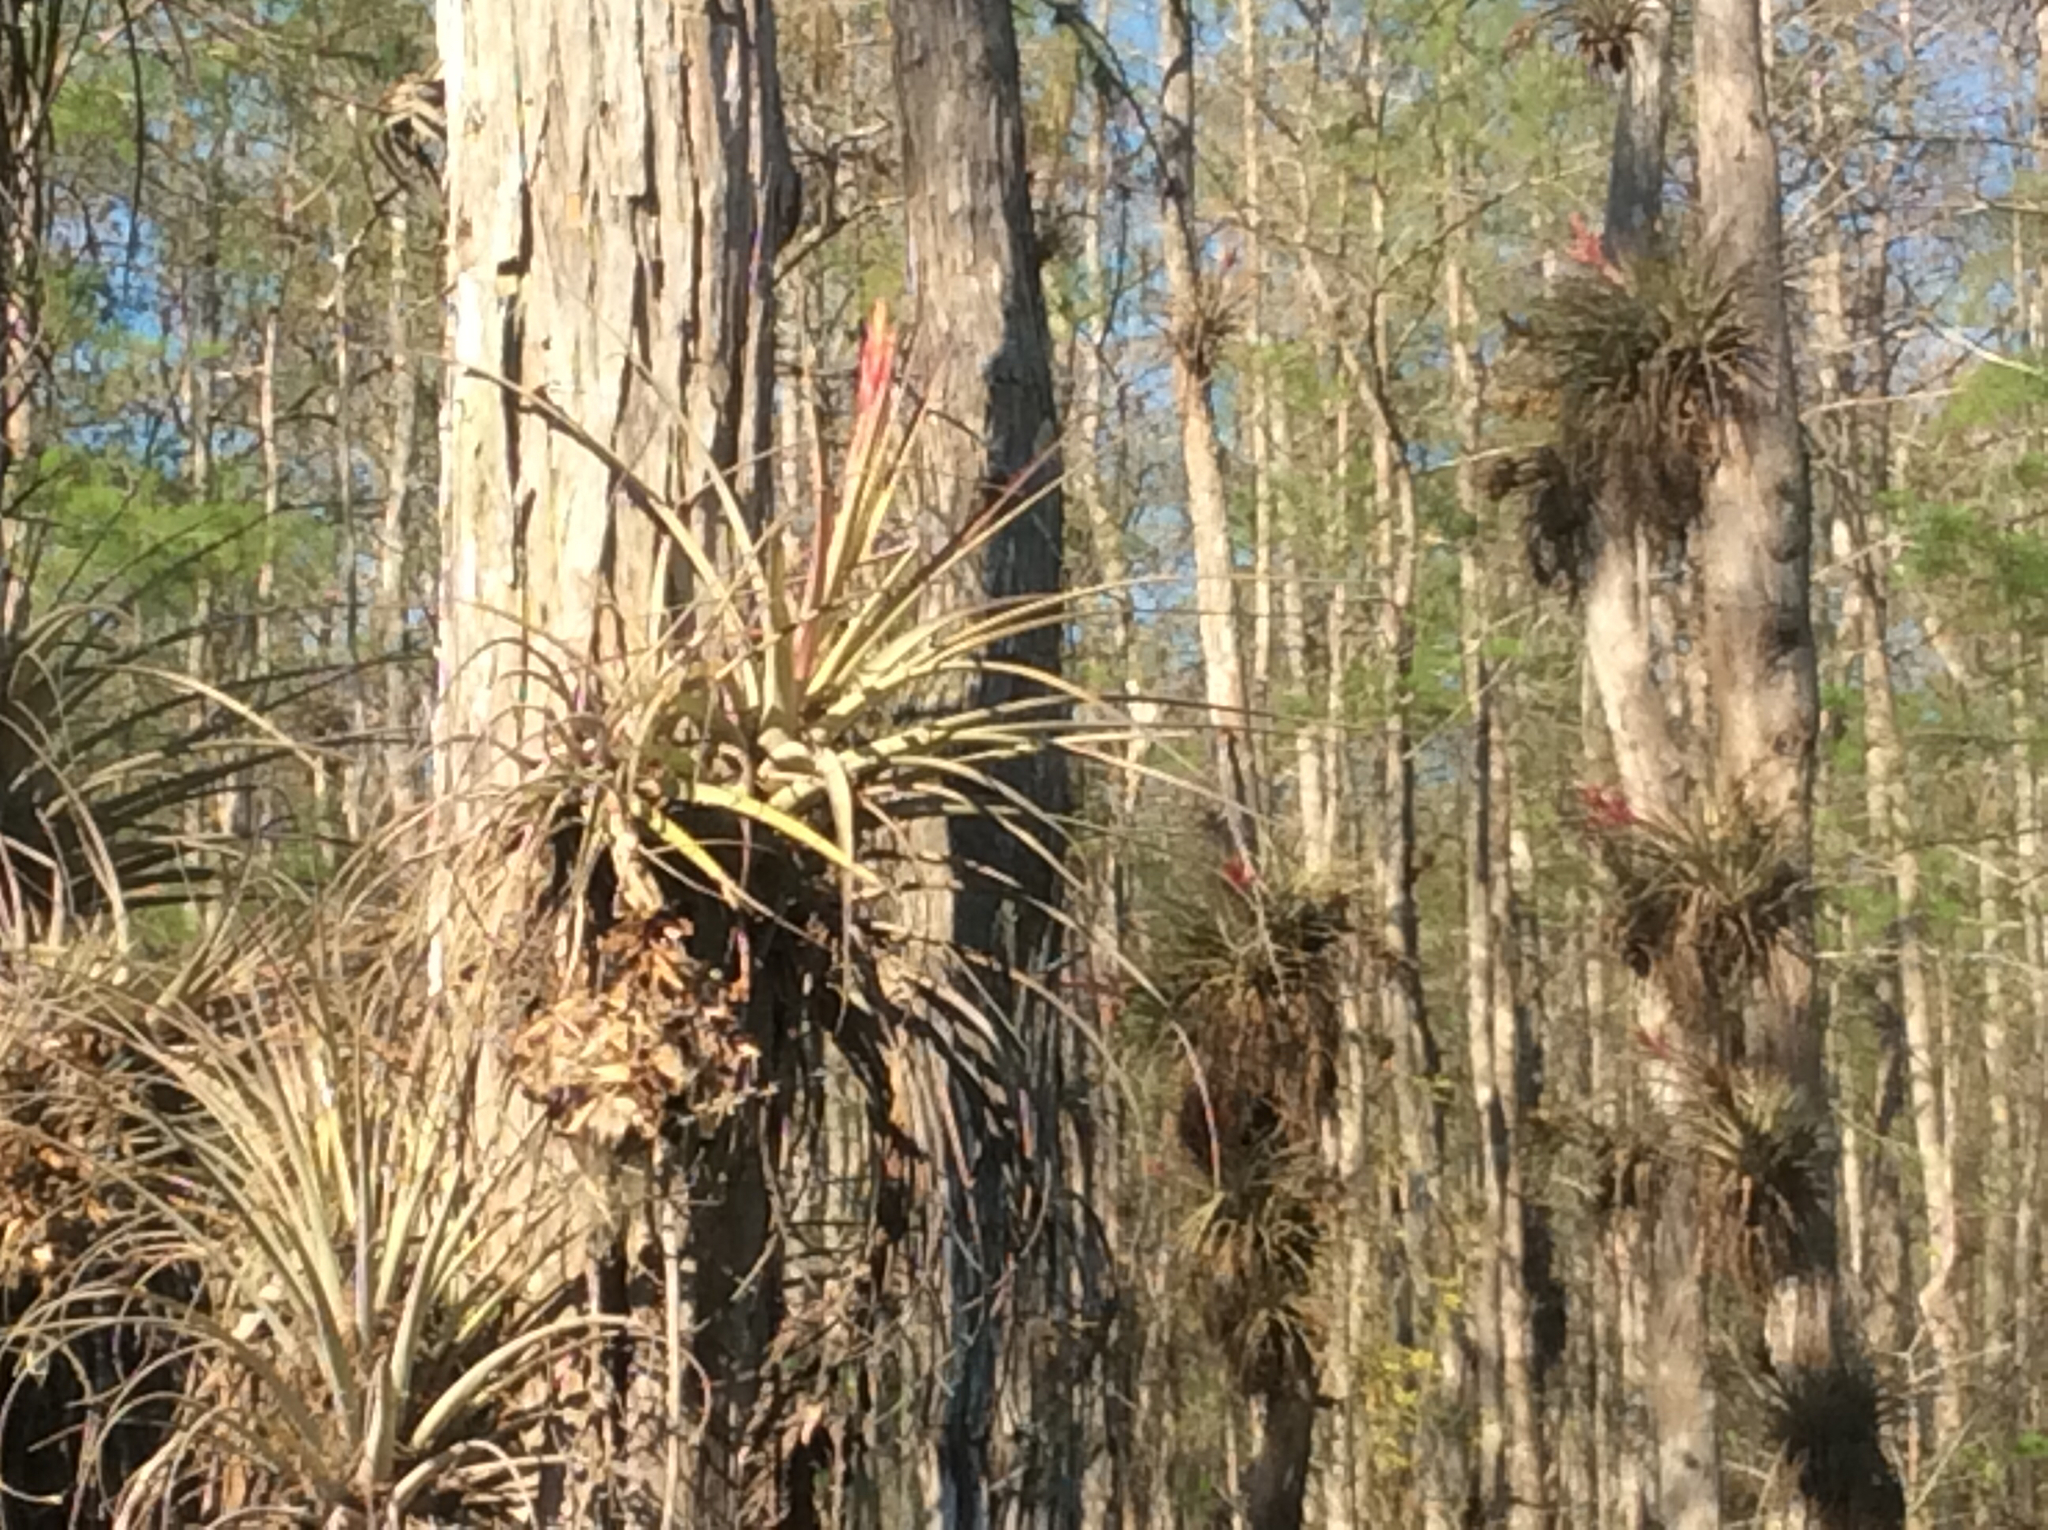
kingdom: Plantae
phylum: Tracheophyta
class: Liliopsida
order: Poales
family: Bromeliaceae
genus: Tillandsia
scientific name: Tillandsia fasciculata
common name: Giant airplant
